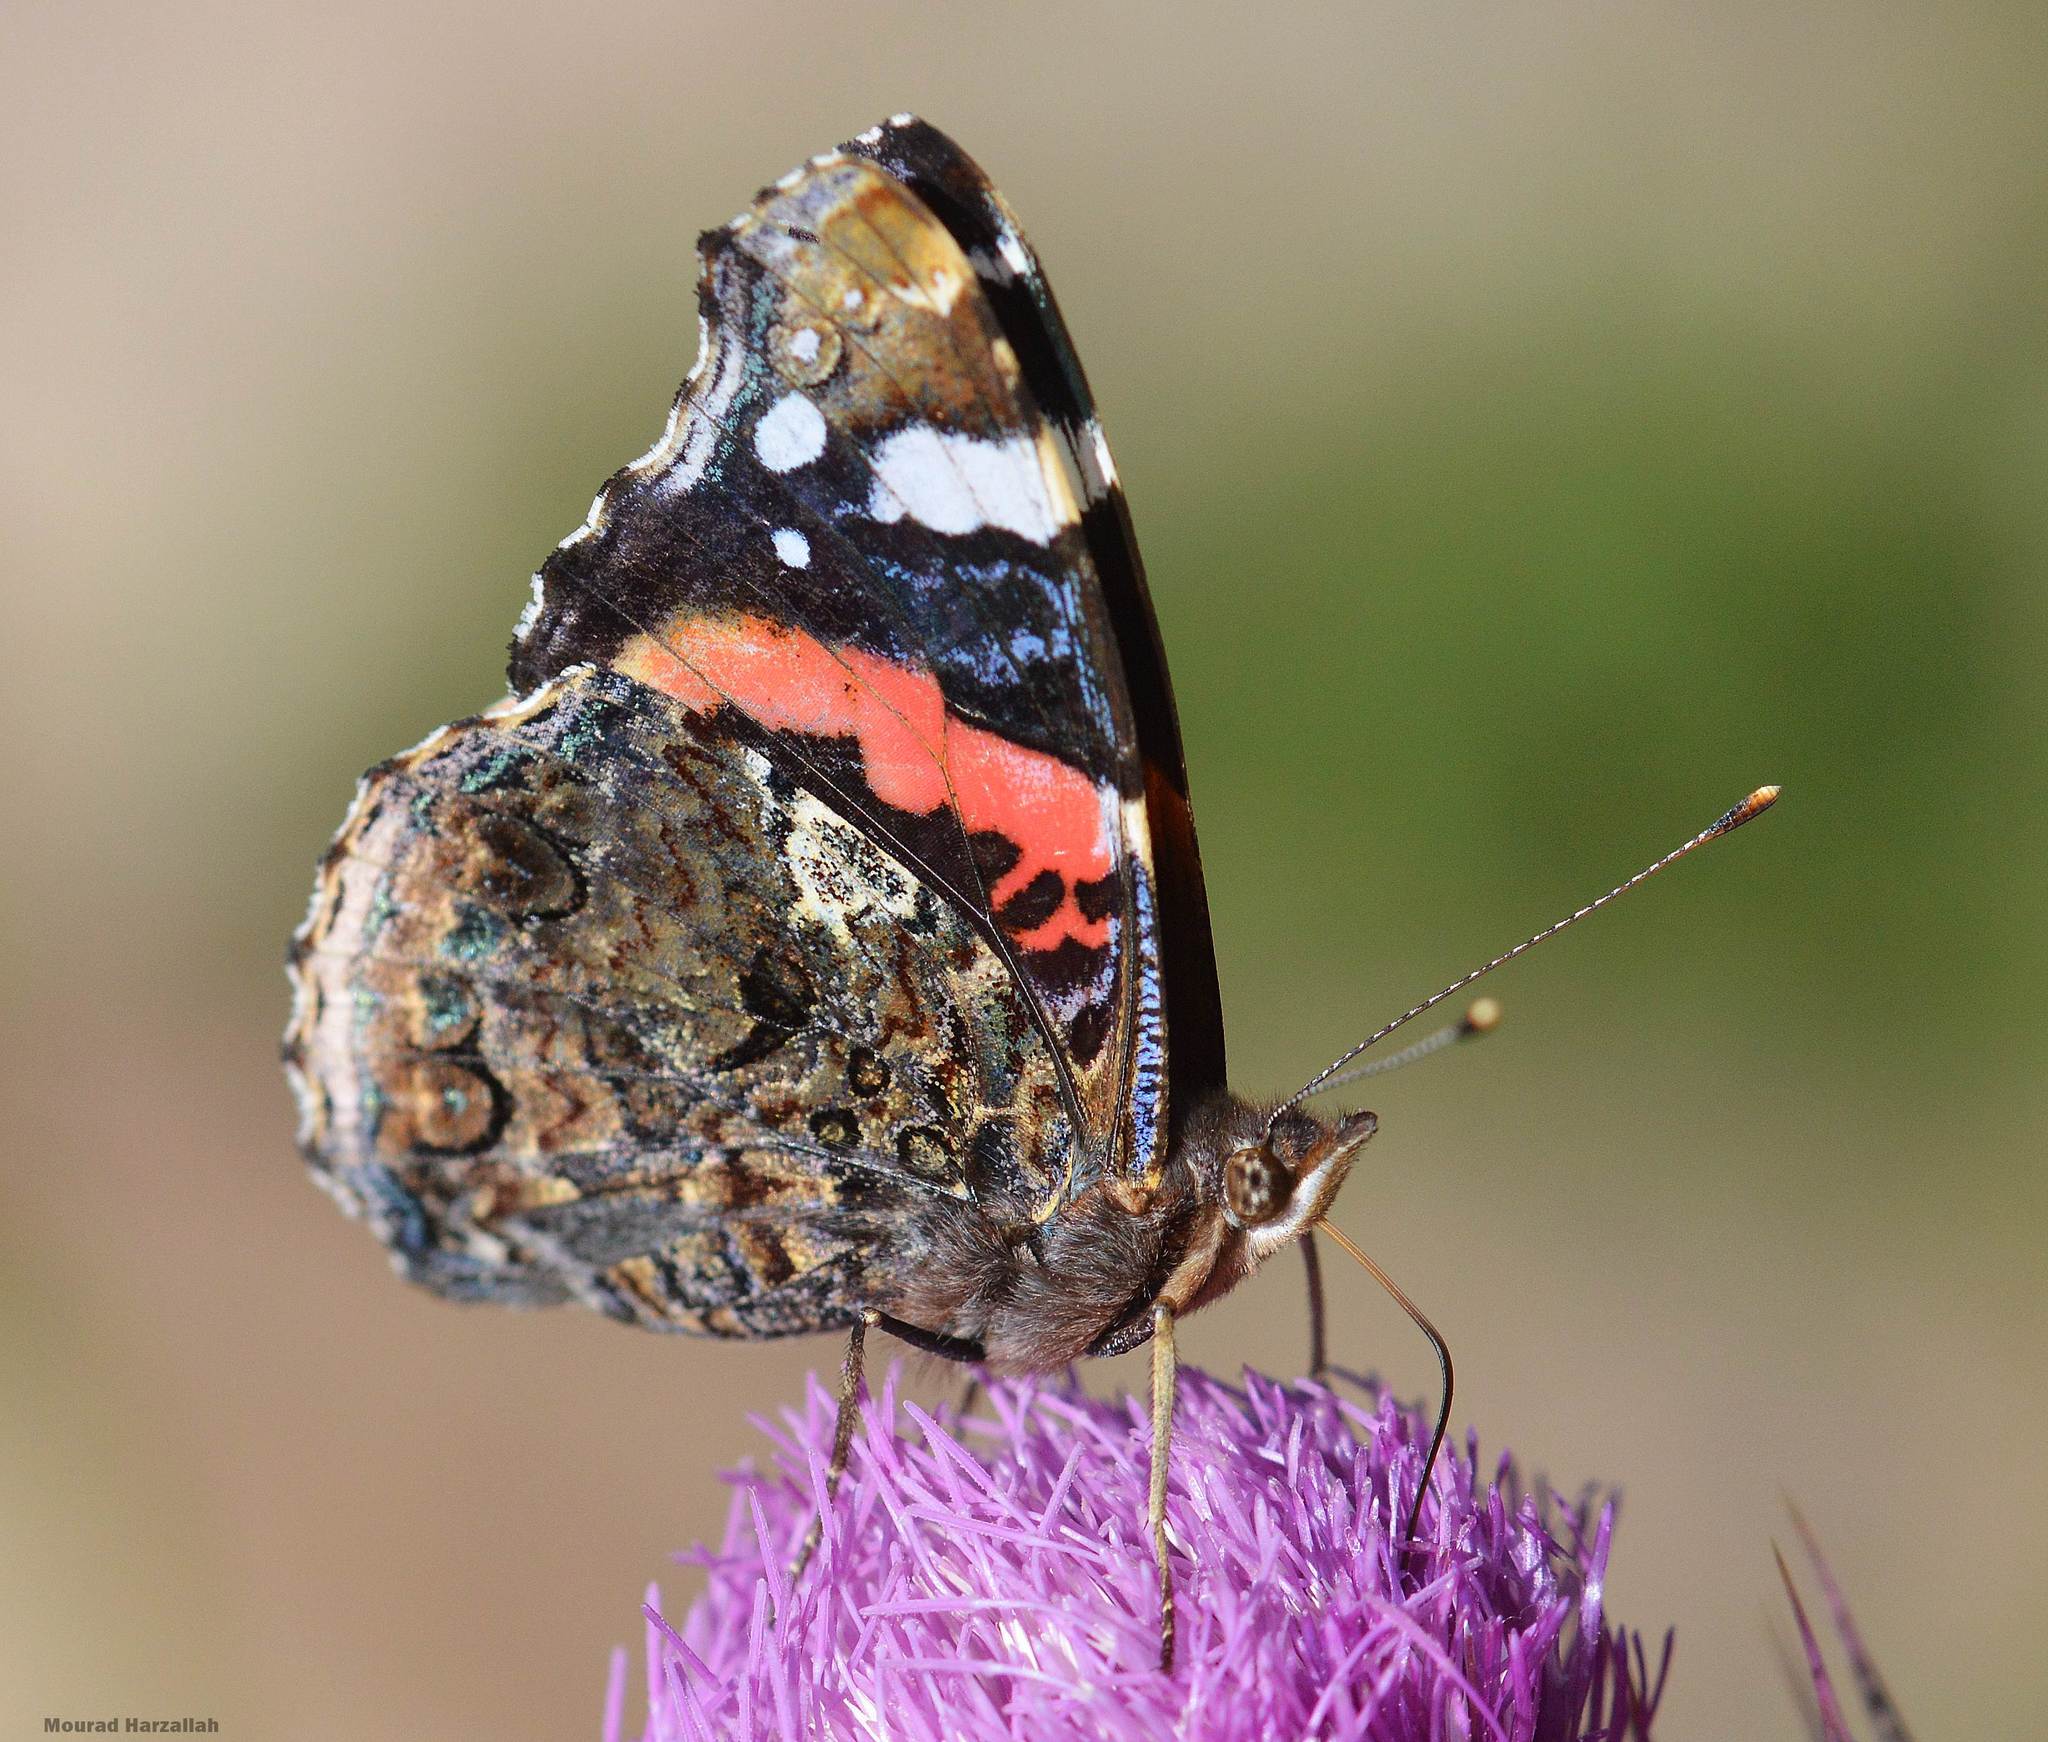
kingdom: Animalia
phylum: Arthropoda
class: Insecta
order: Lepidoptera
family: Nymphalidae
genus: Vanessa
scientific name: Vanessa atalanta
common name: Red admiral
